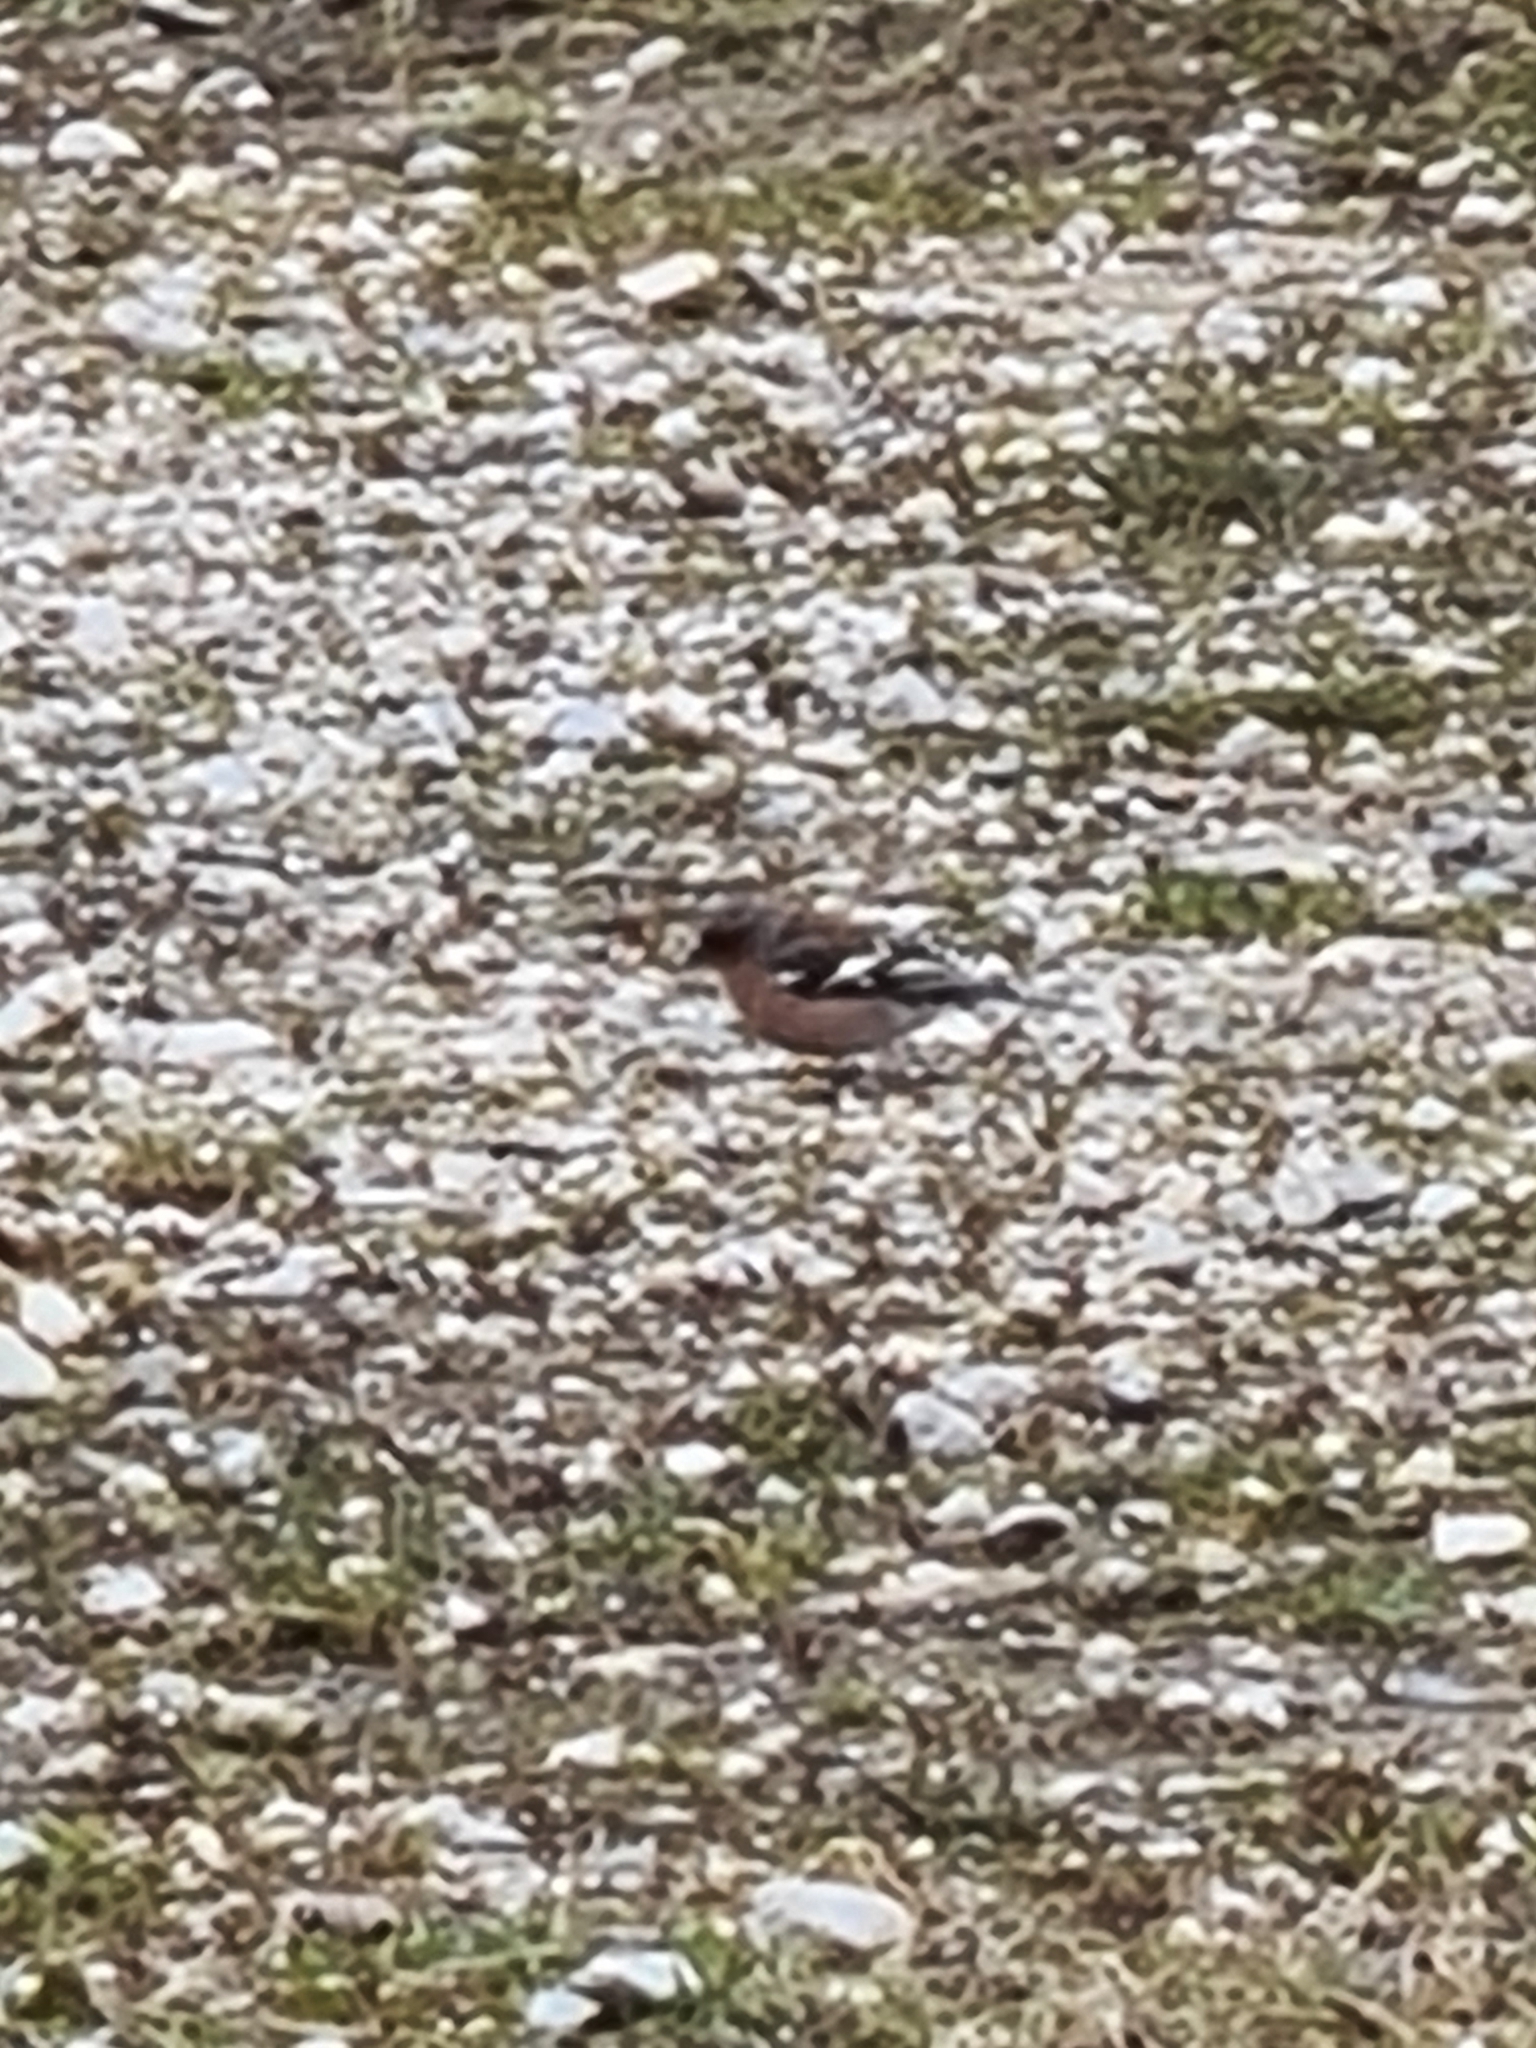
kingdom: Animalia
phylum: Chordata
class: Aves
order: Passeriformes
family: Fringillidae
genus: Fringilla
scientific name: Fringilla coelebs
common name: Common chaffinch
